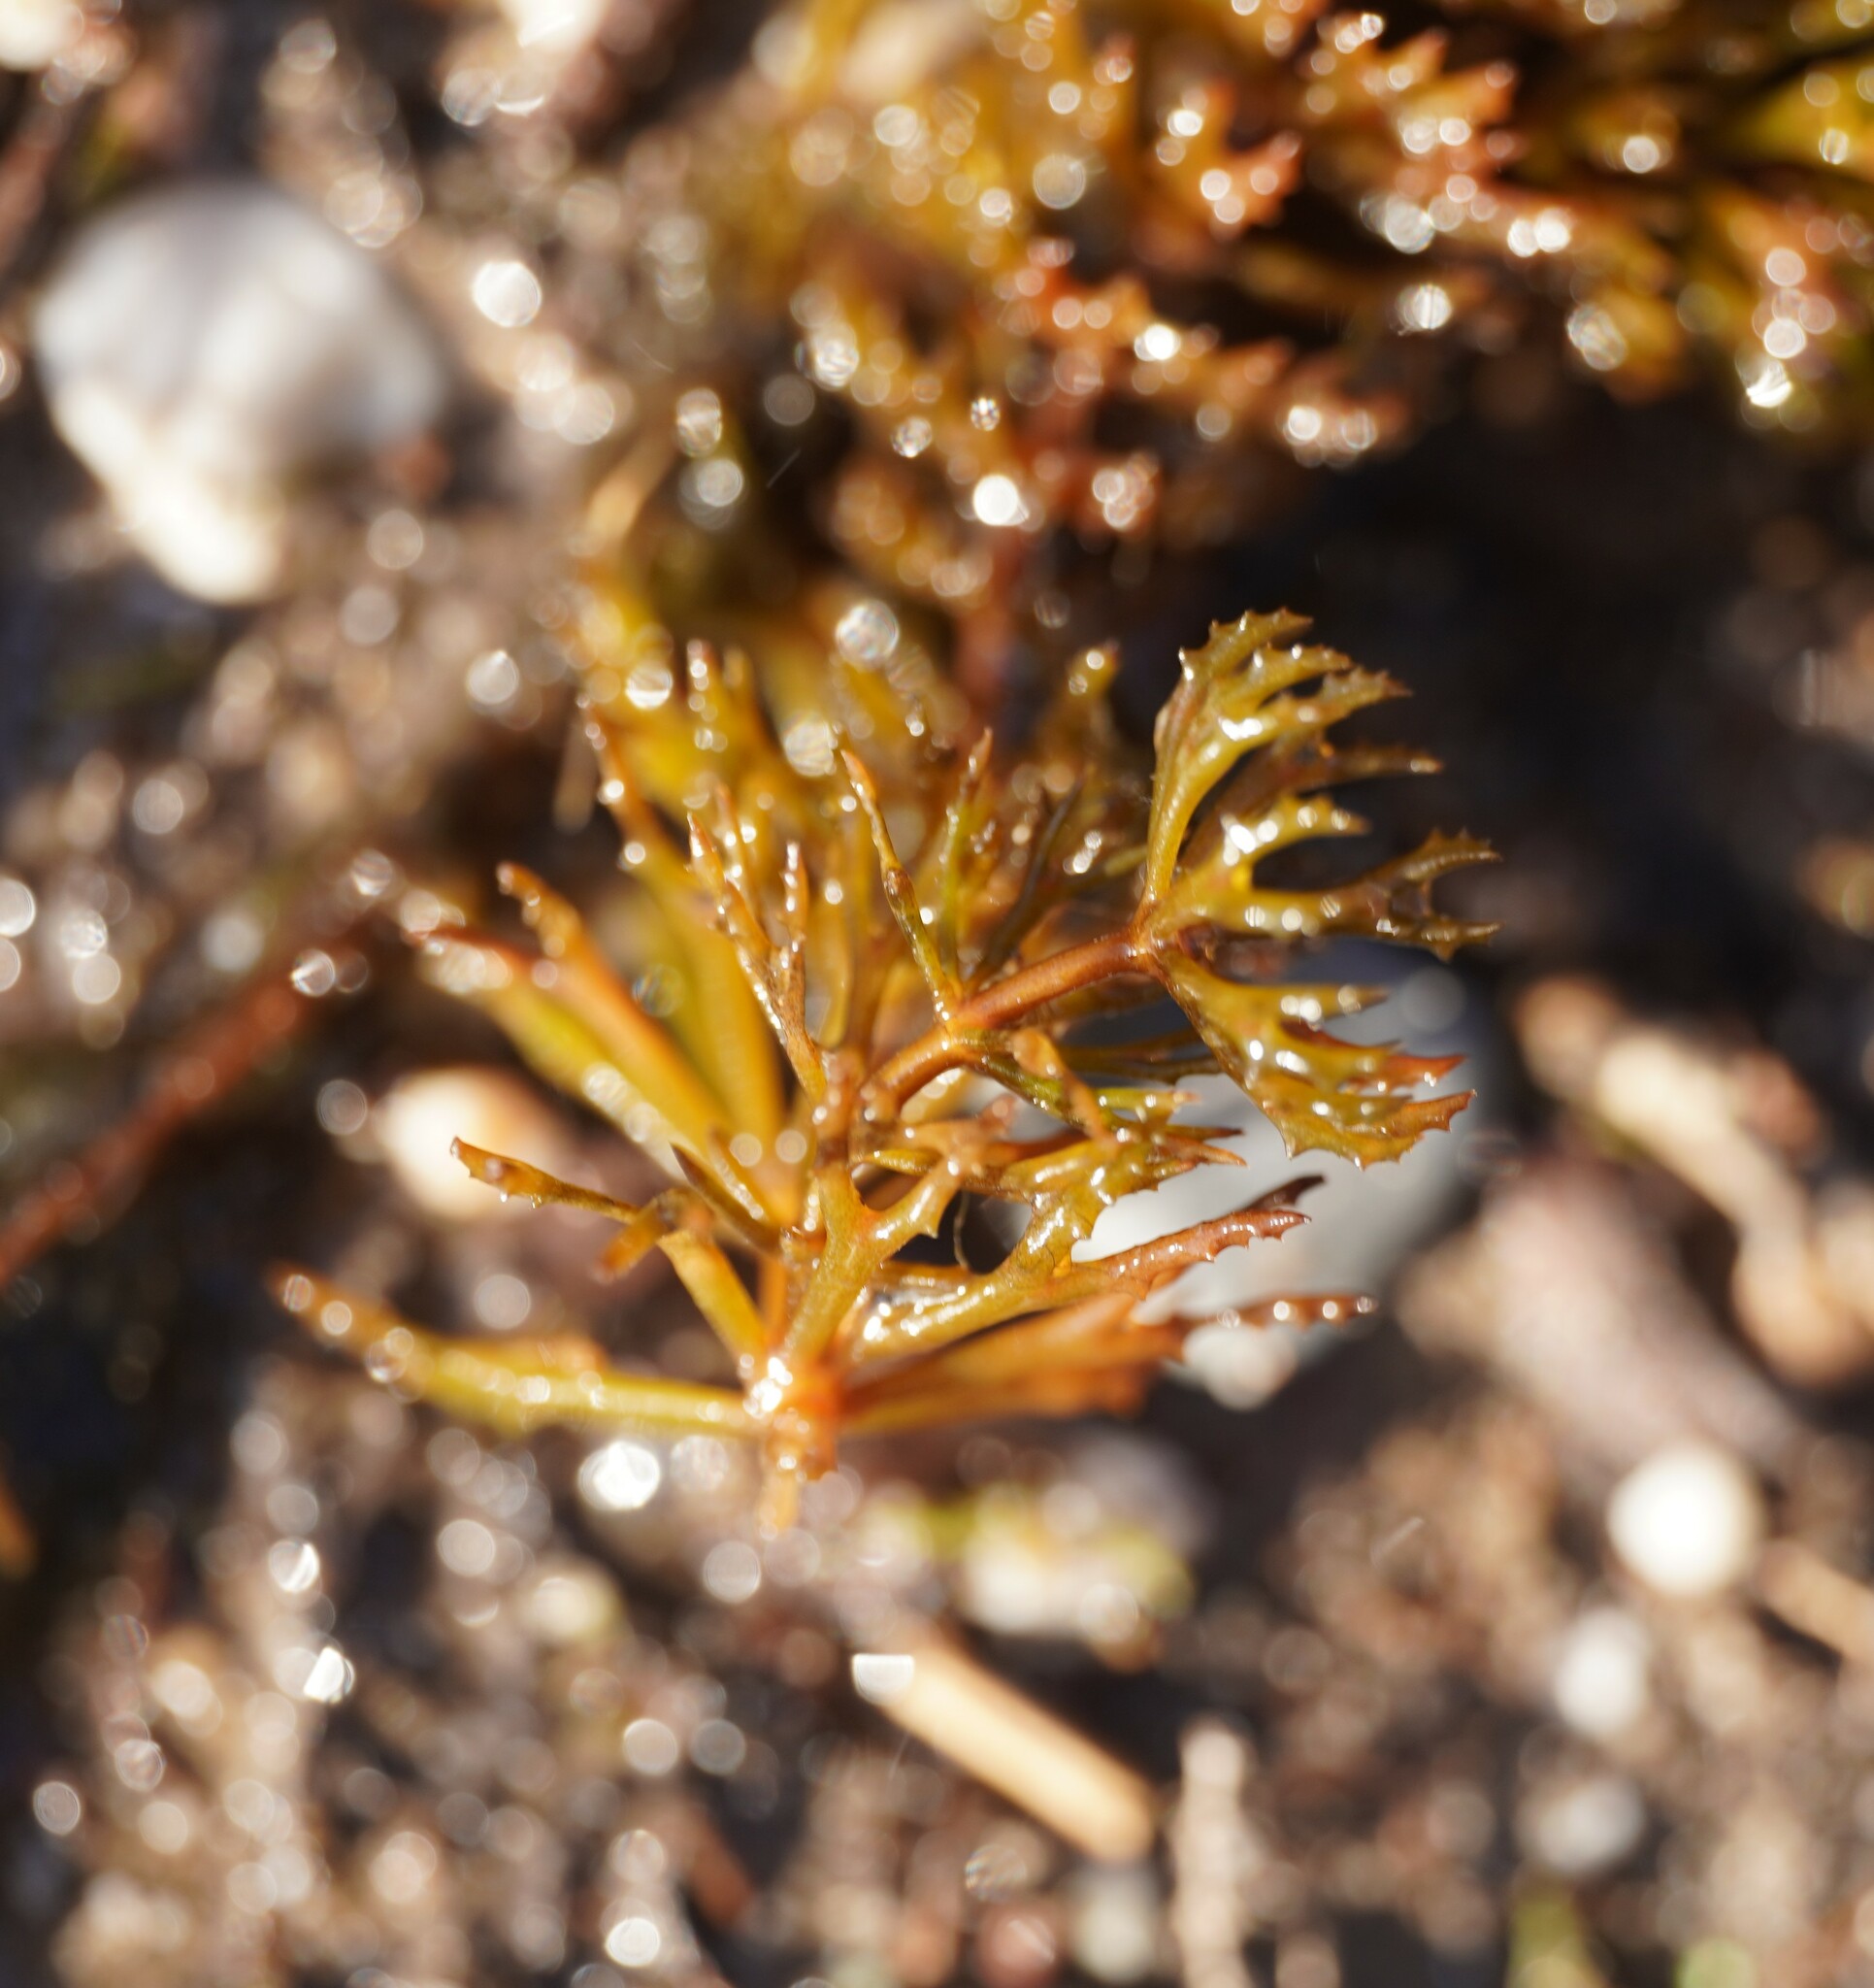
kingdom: Plantae
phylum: Tracheophyta
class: Magnoliopsida
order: Ceratophyllales
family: Ceratophyllaceae
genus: Ceratophyllum
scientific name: Ceratophyllum demersum
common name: Rigid hornwort
